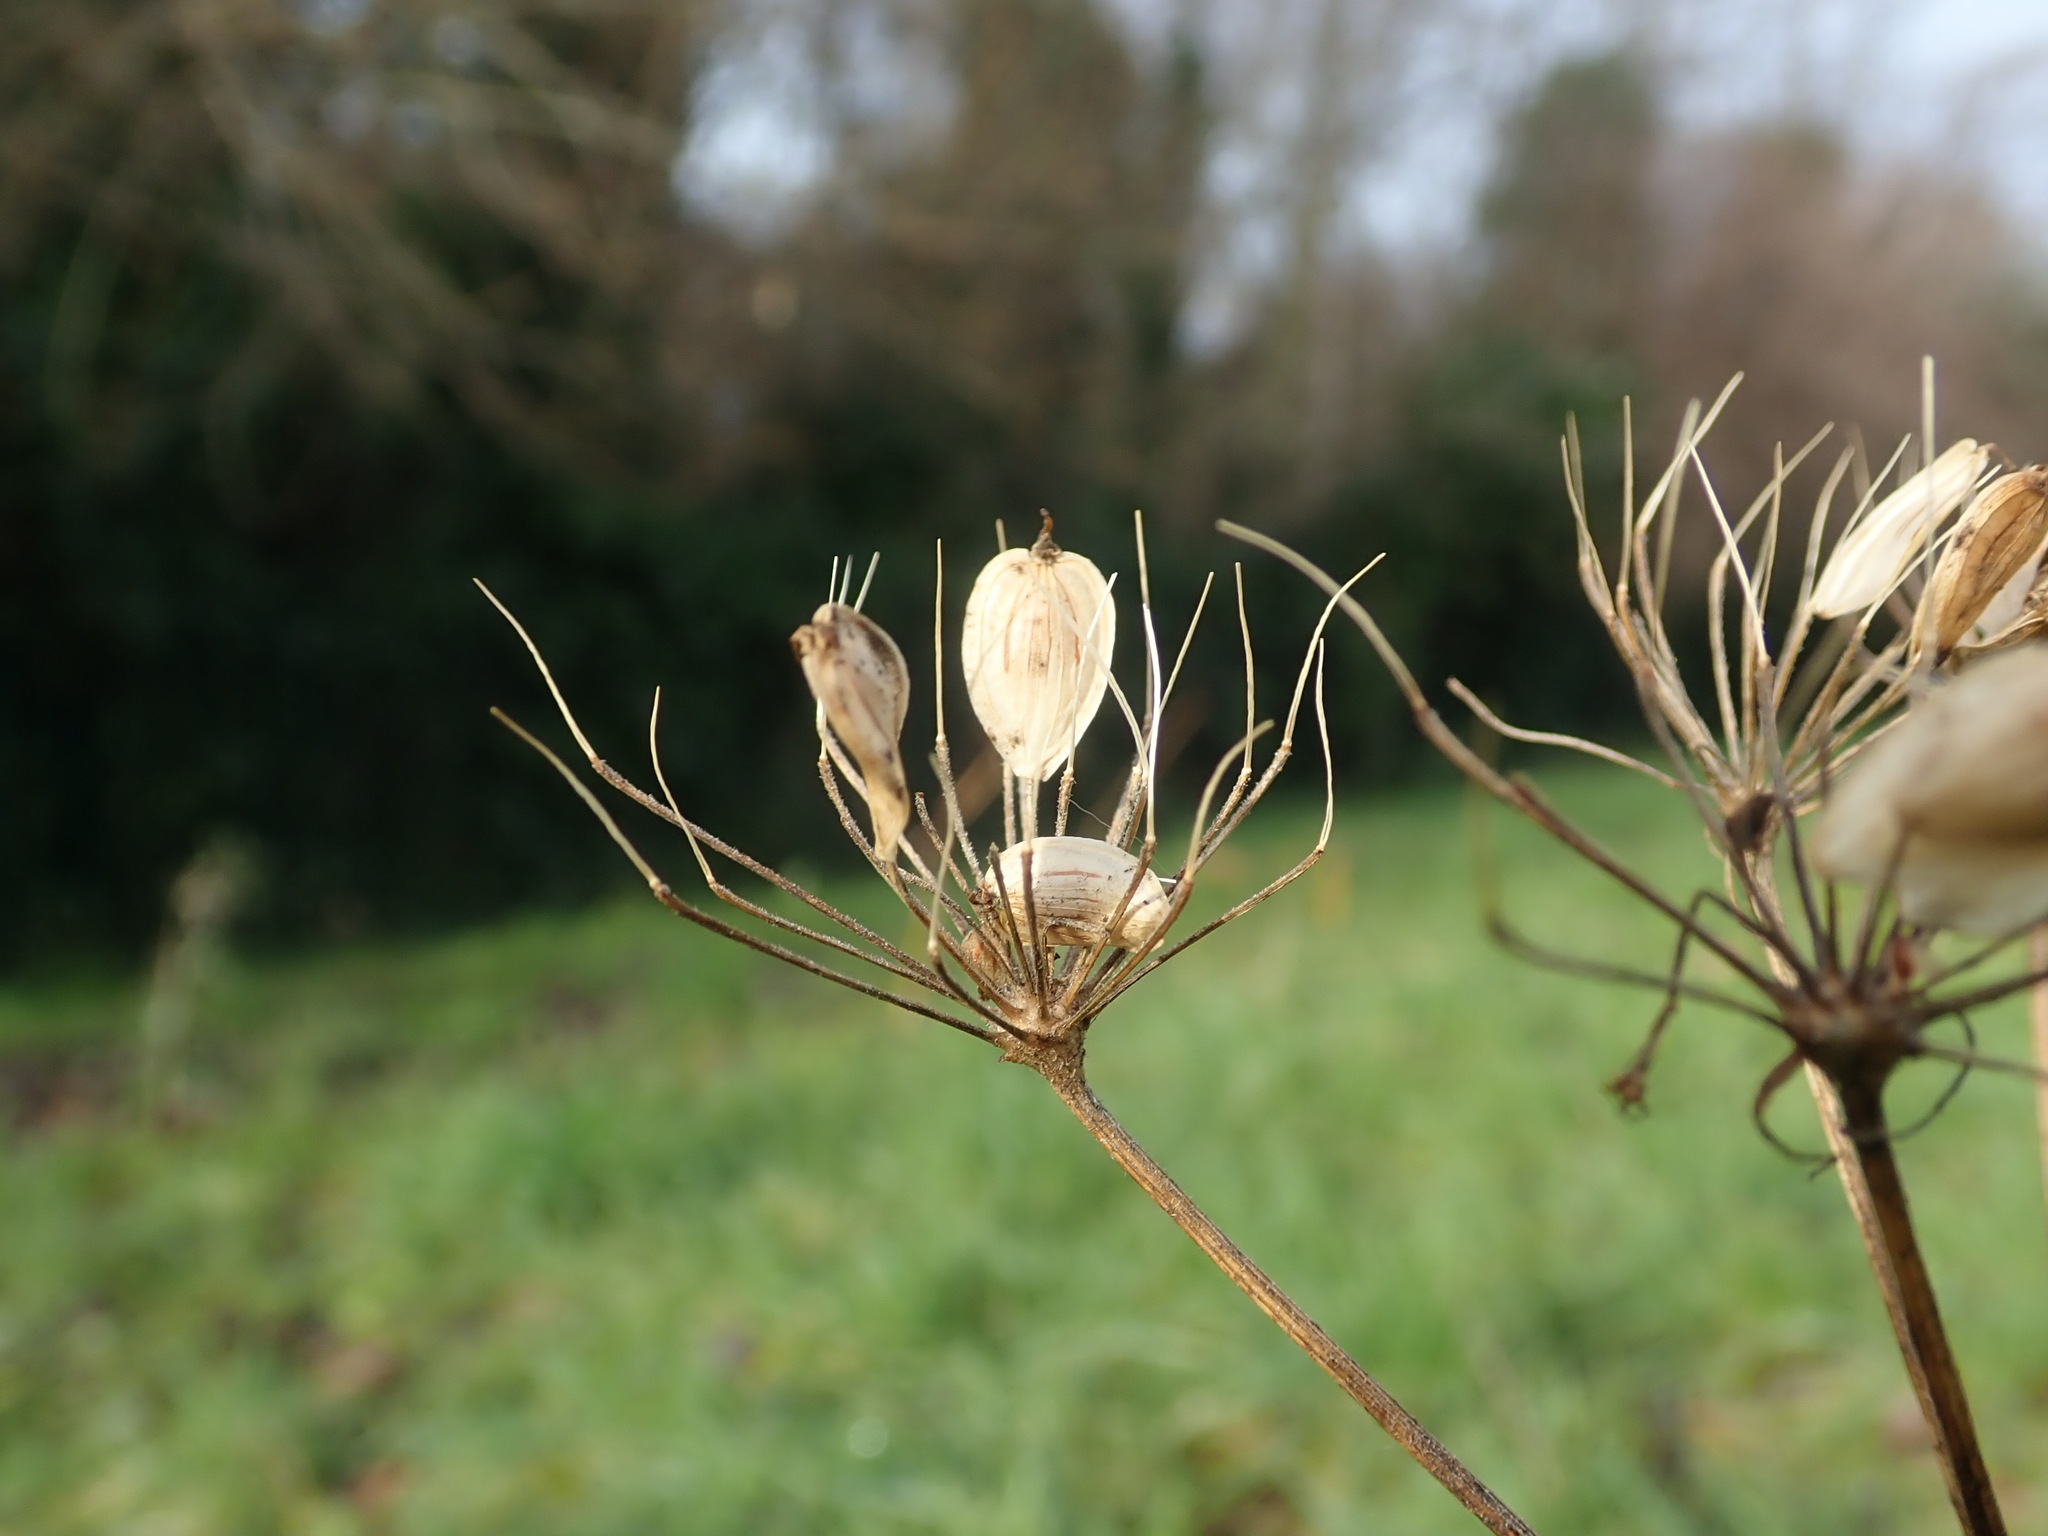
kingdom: Plantae
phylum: Tracheophyta
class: Magnoliopsida
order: Apiales
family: Apiaceae
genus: Heracleum
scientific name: Heracleum sphondylium
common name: Hogweed
